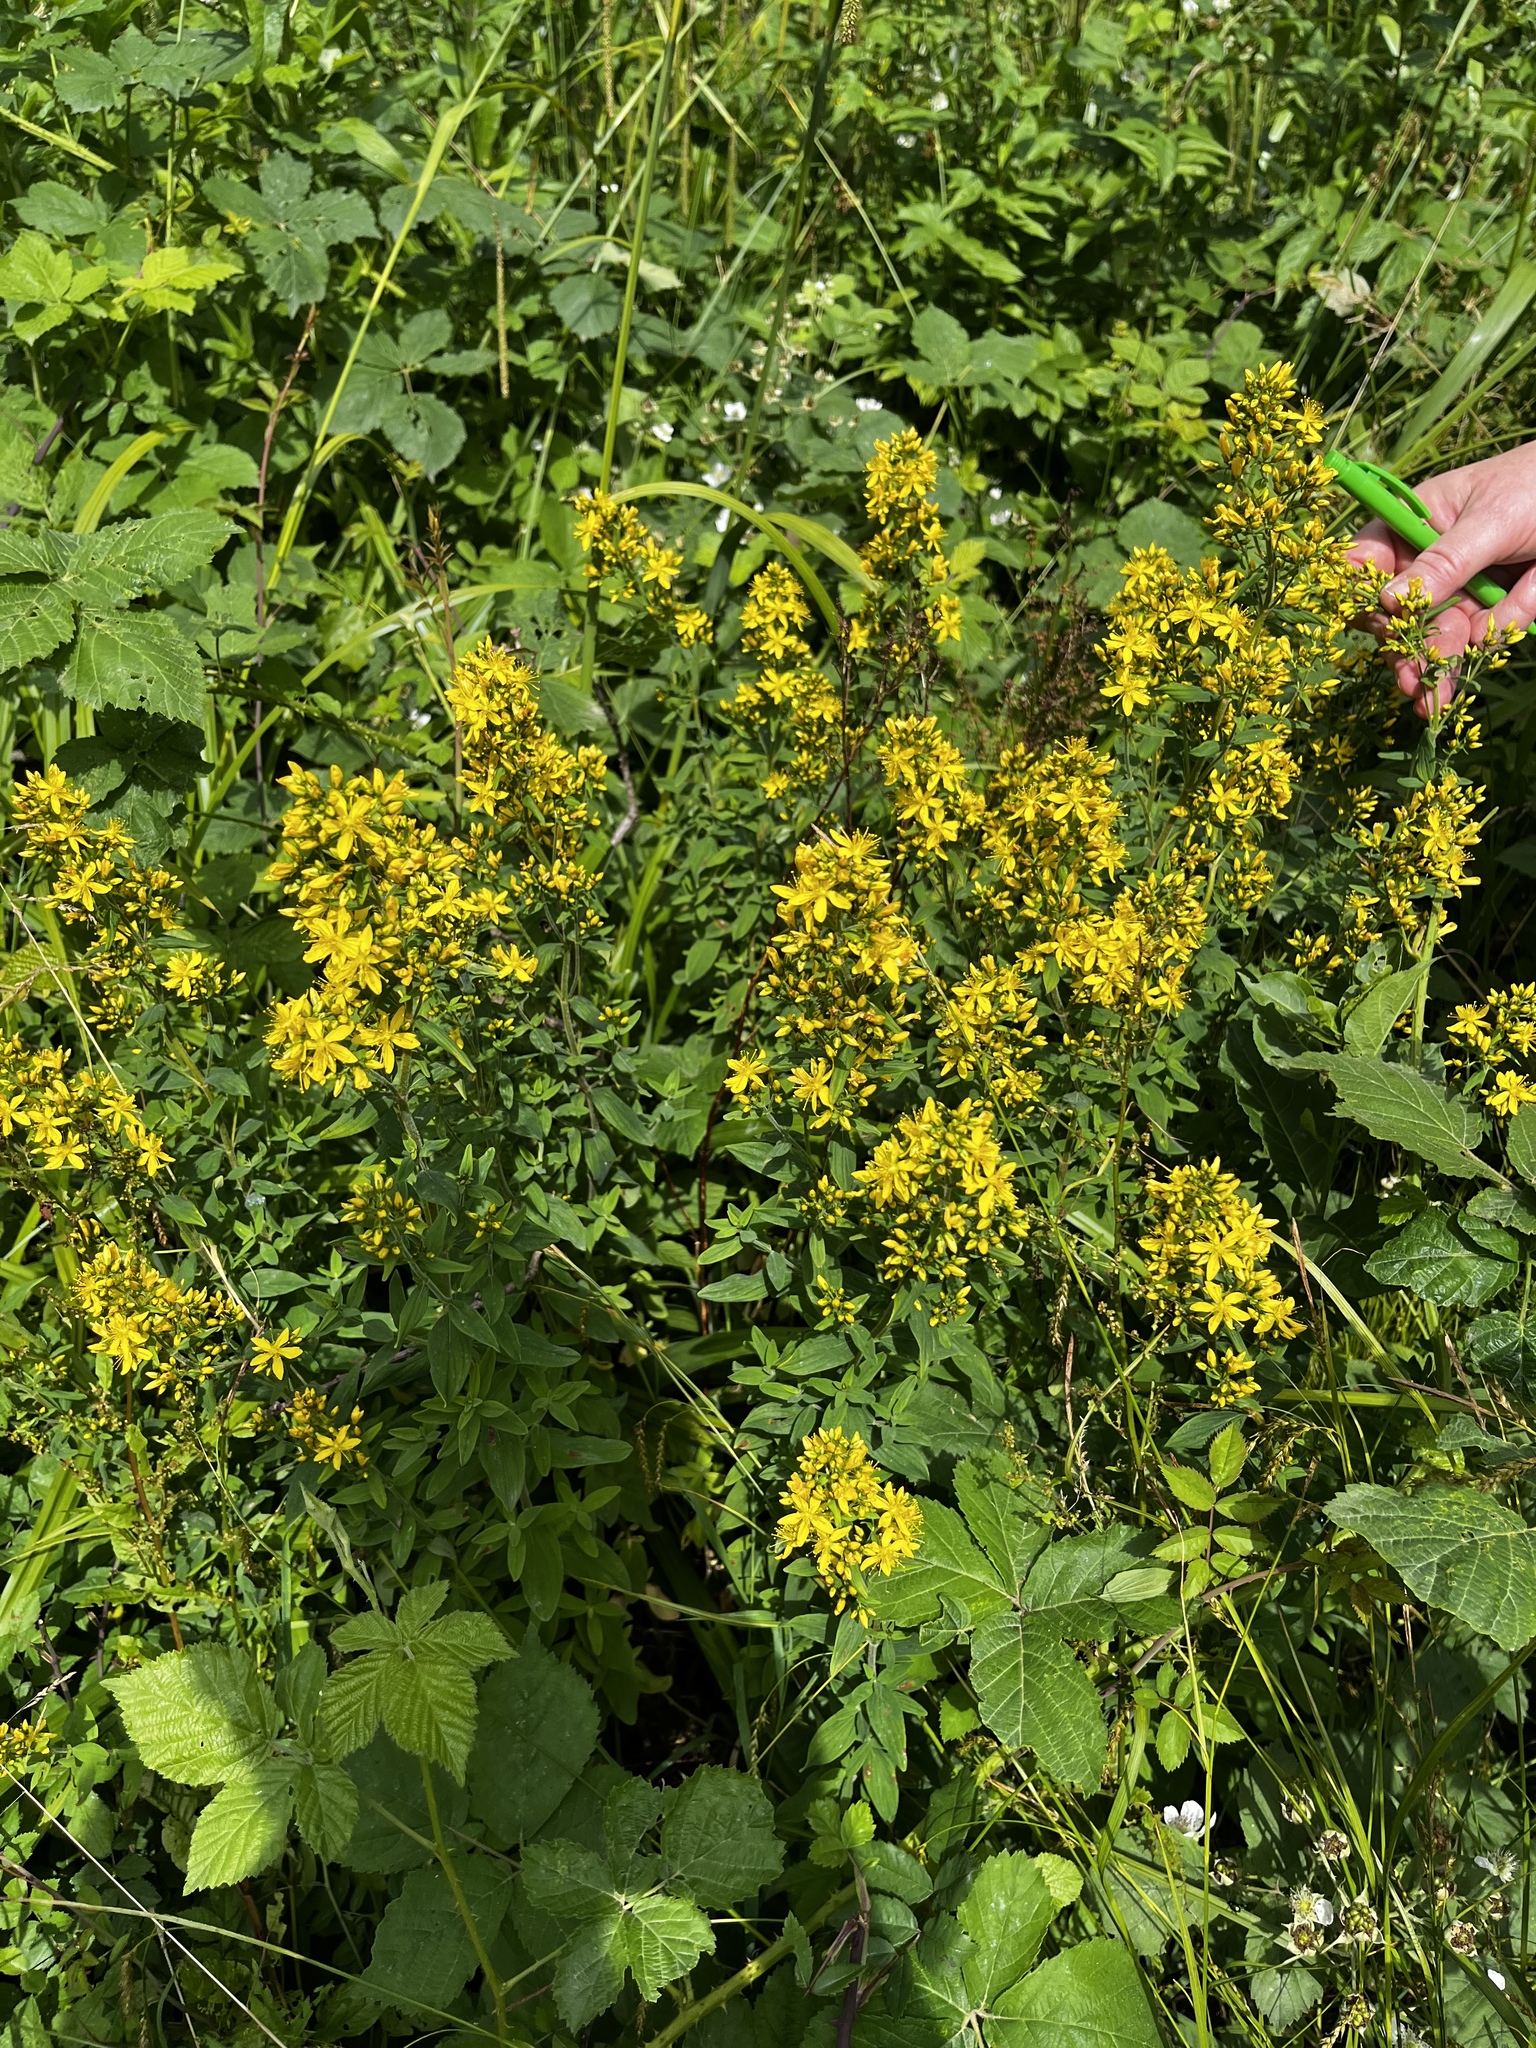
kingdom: Plantae
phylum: Tracheophyta
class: Magnoliopsida
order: Malpighiales
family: Hypericaceae
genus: Hypericum
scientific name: Hypericum hirsutum
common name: Hairy st. john's-wort
